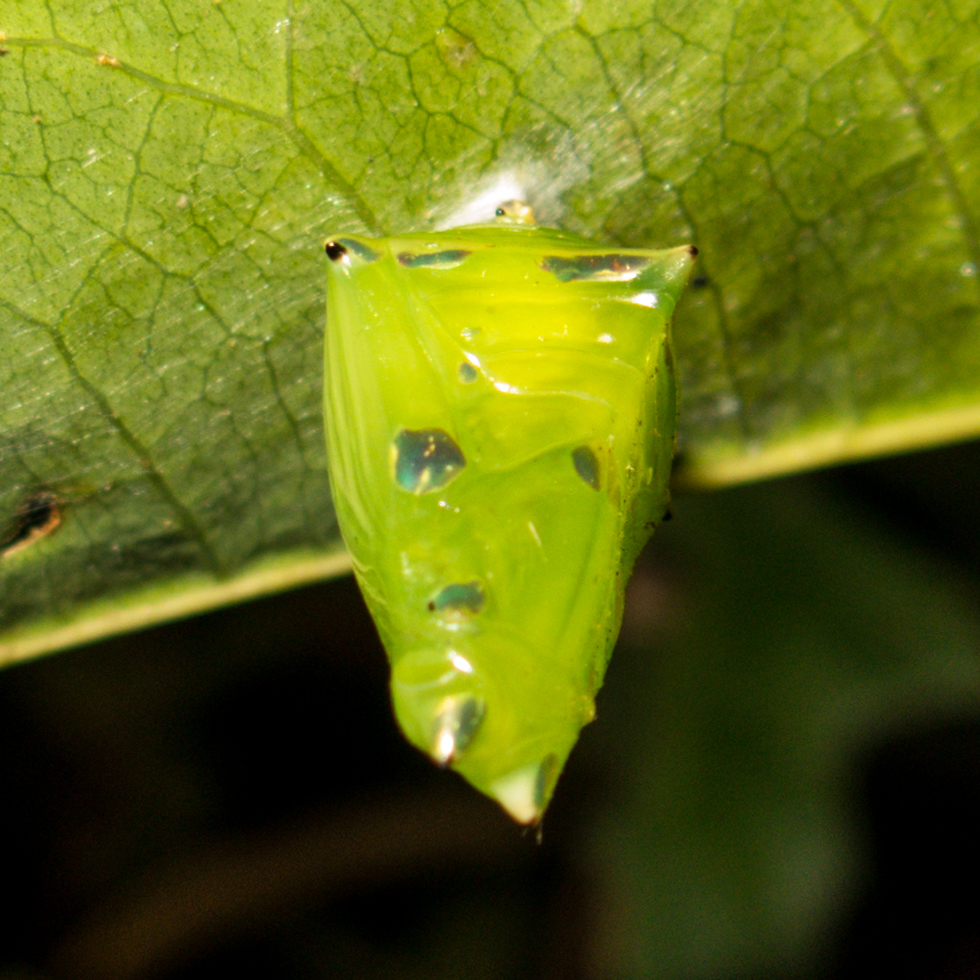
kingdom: Animalia
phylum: Arthropoda
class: Insecta
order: Lepidoptera
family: Nymphalidae
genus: Tanaecia
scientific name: Tanaecia lepidea
